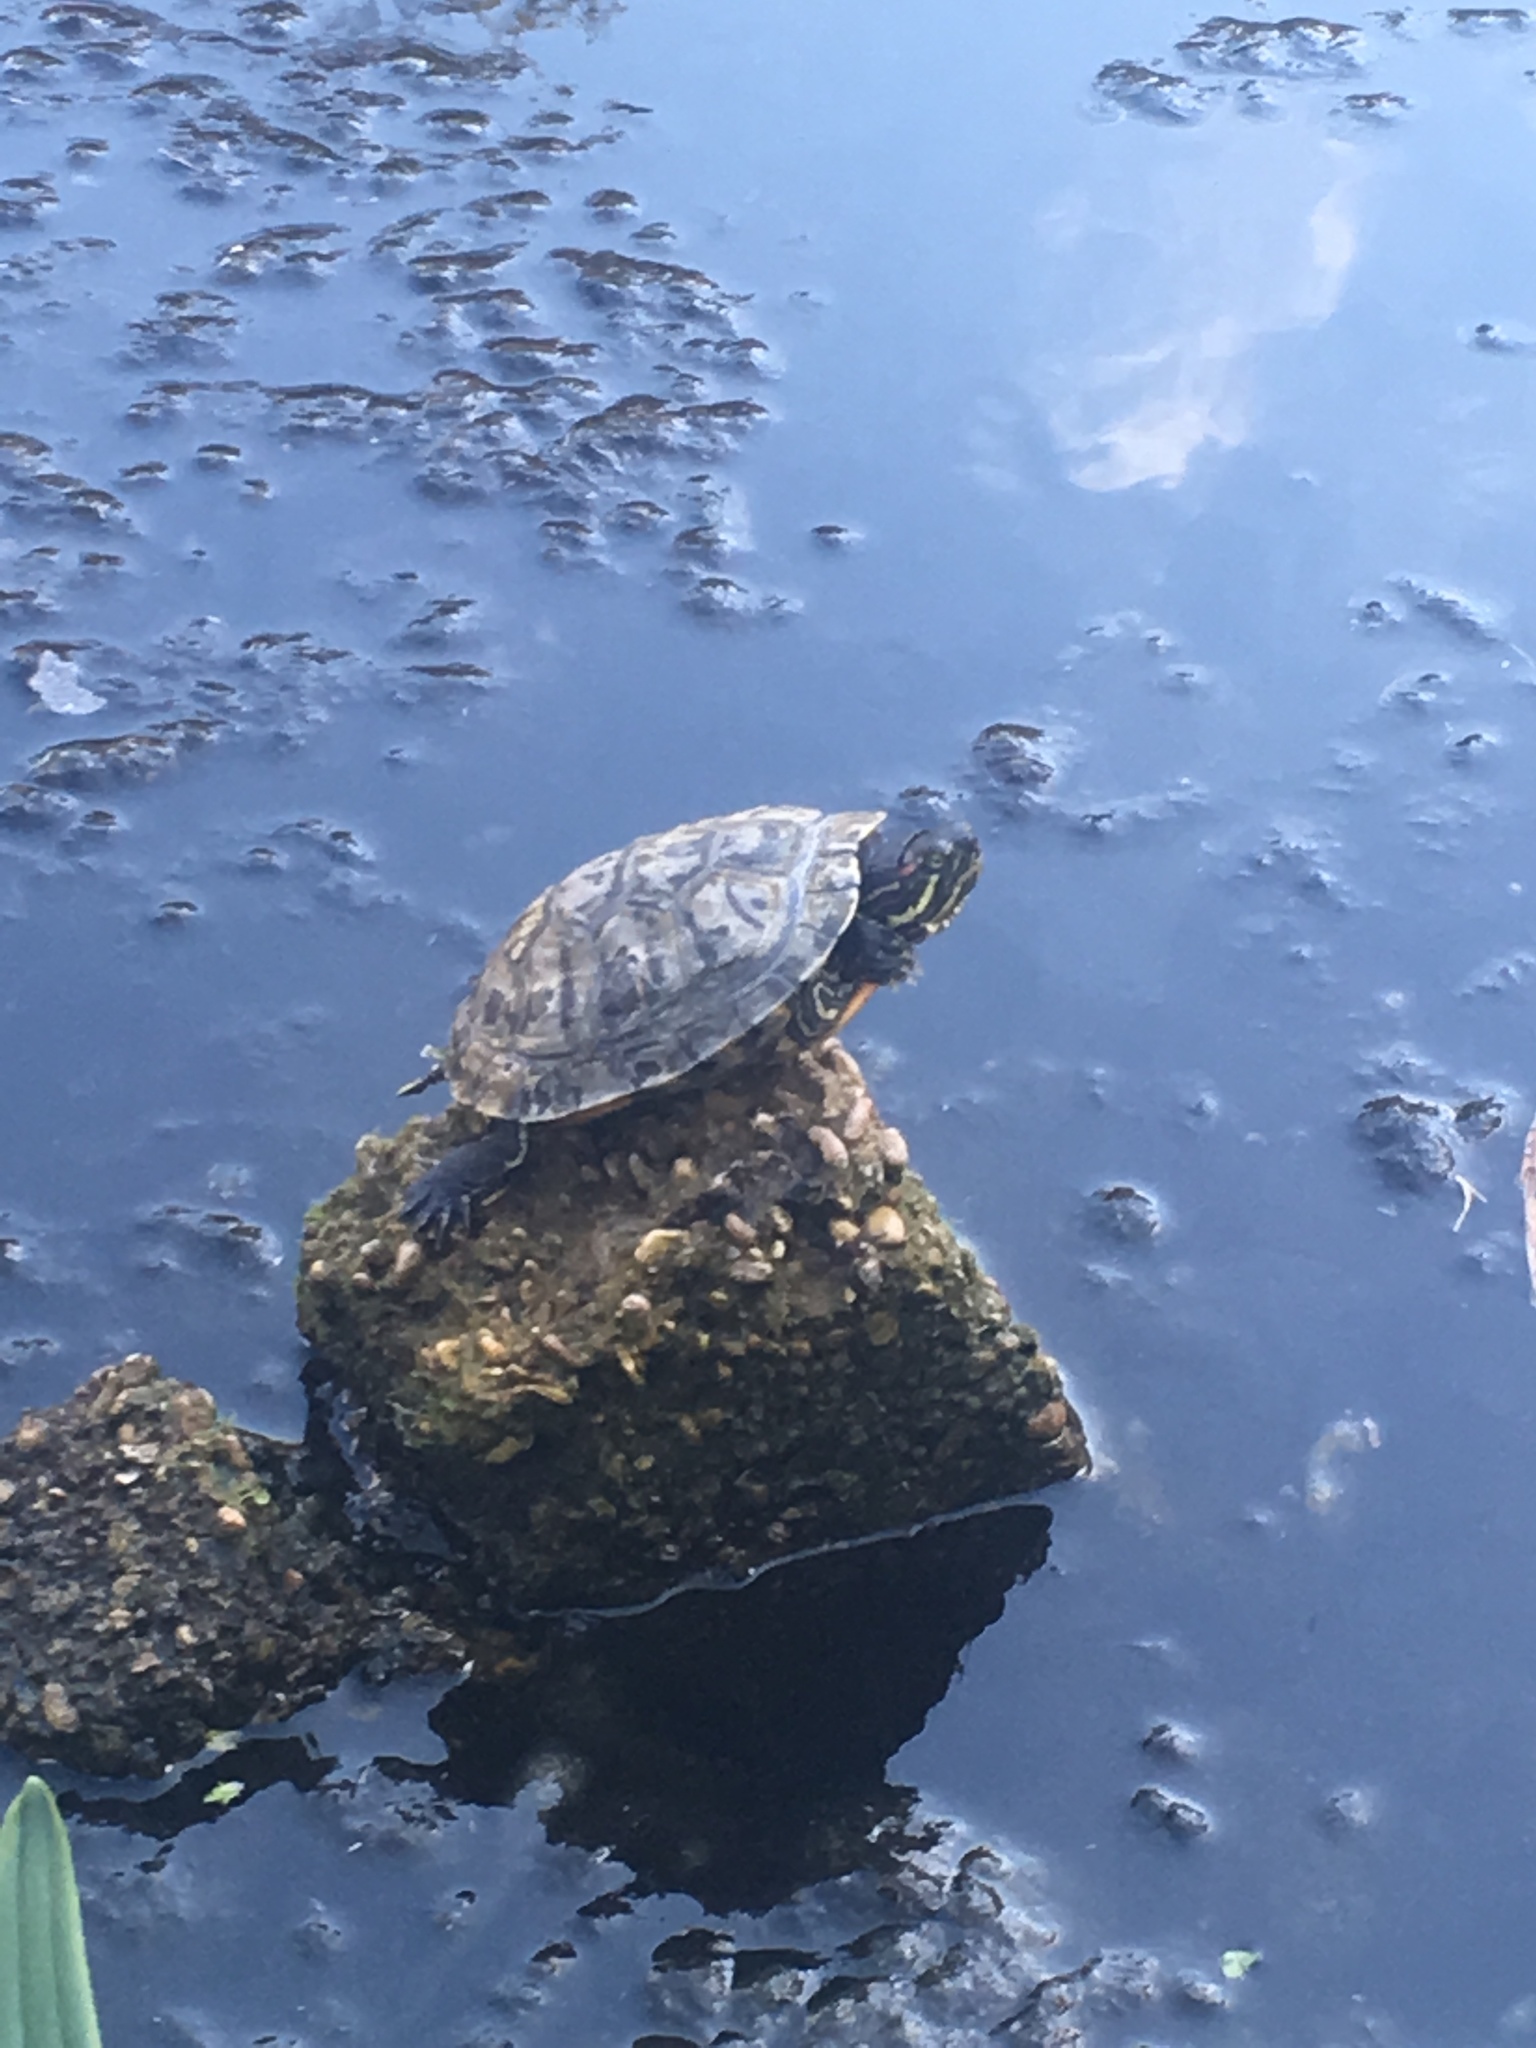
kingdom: Animalia
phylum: Chordata
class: Testudines
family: Emydidae
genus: Trachemys
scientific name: Trachemys scripta
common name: Slider
